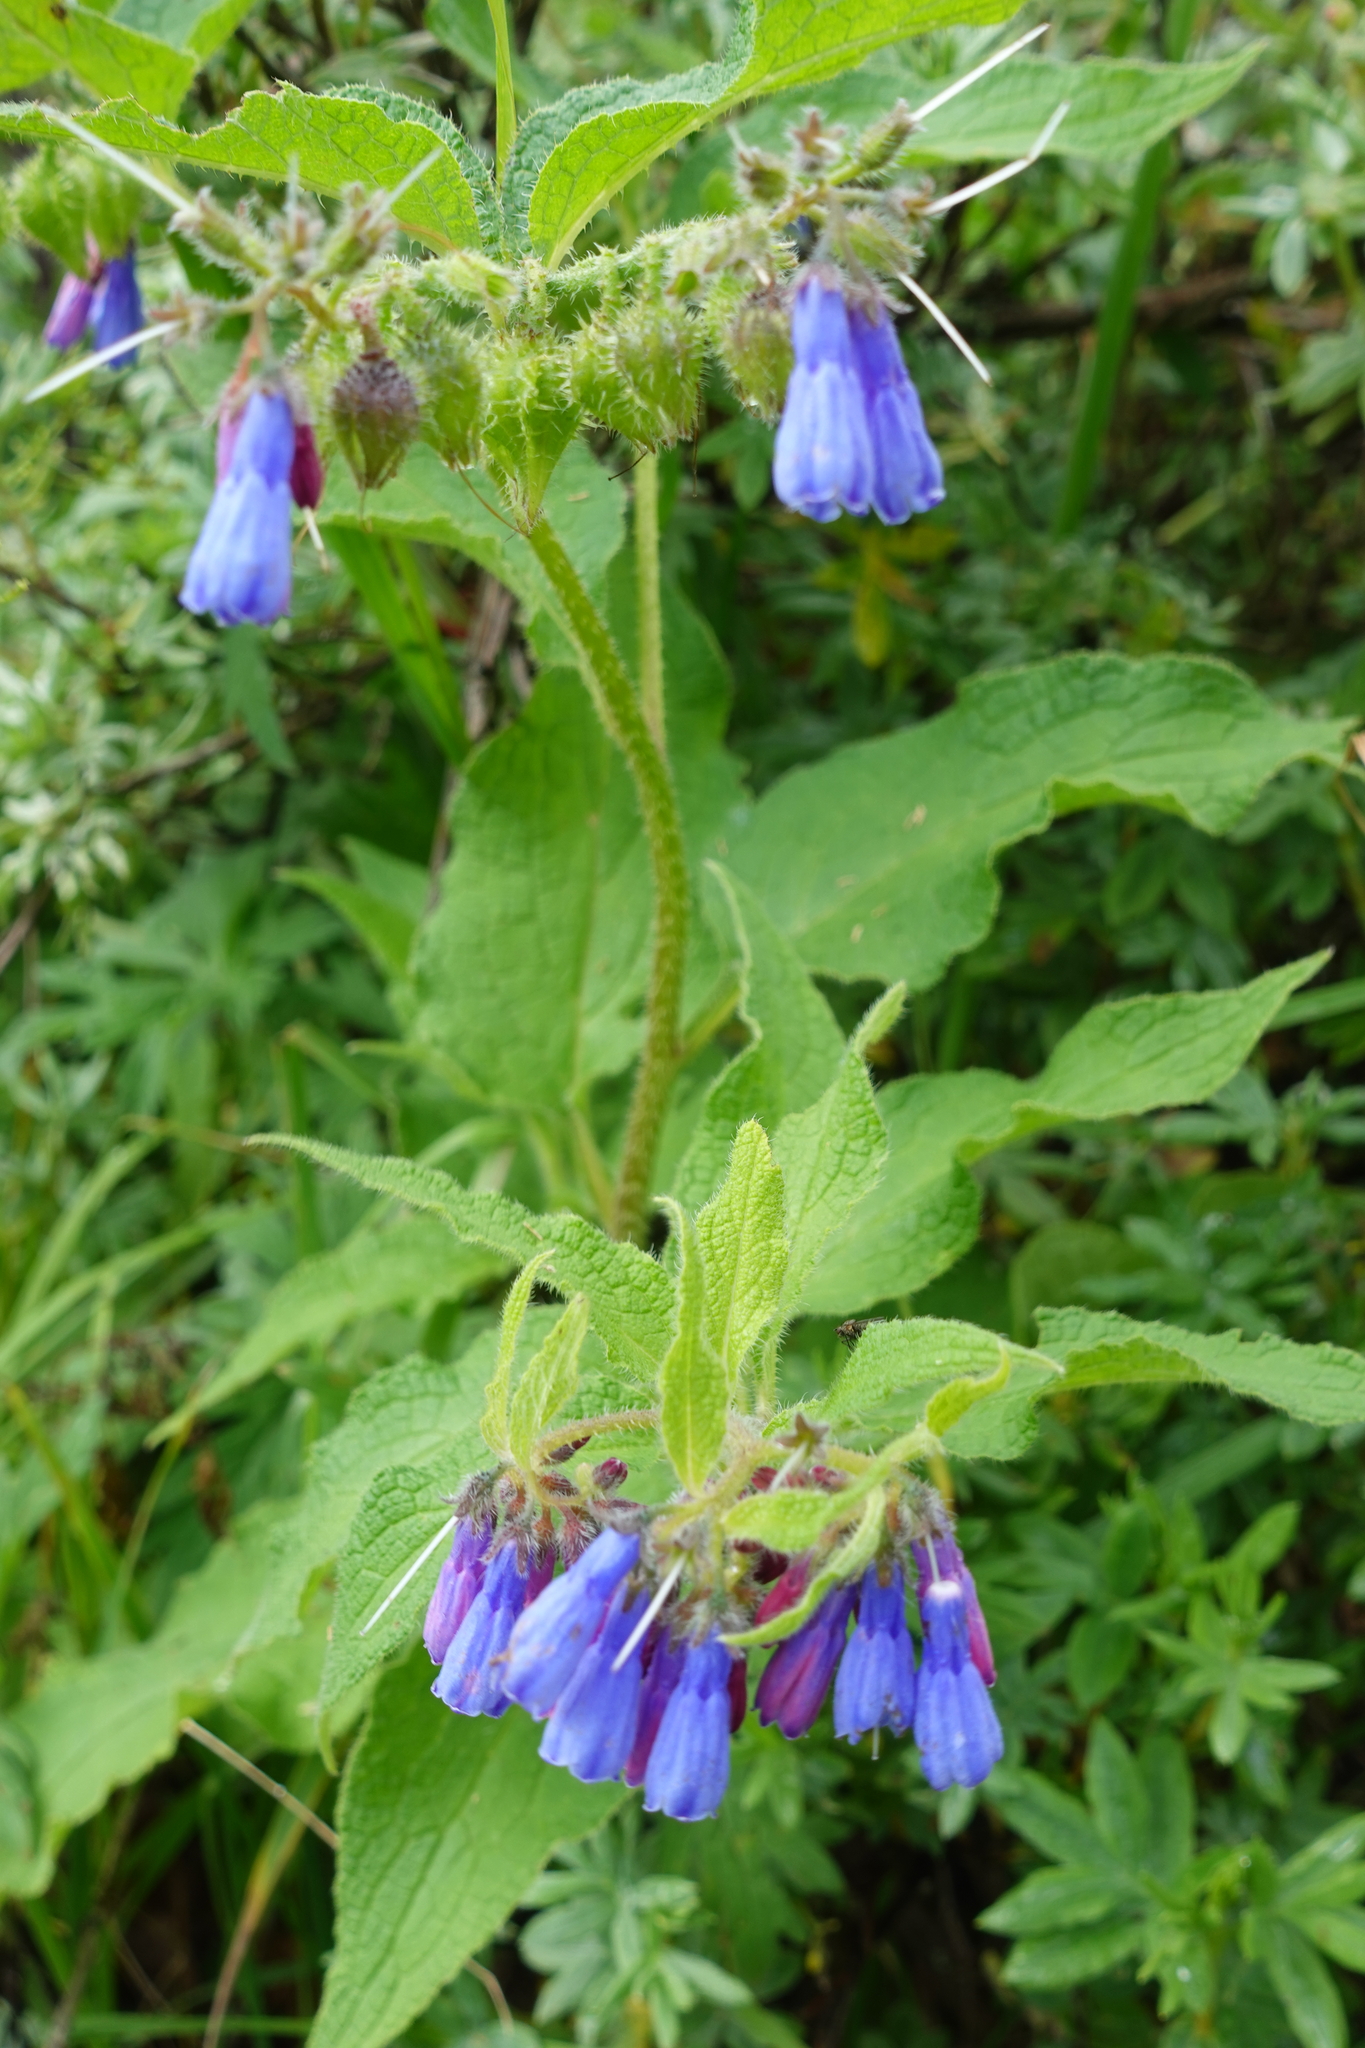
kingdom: Plantae
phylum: Tracheophyta
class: Magnoliopsida
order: Boraginales
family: Boraginaceae
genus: Symphytum
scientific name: Symphytum asperum
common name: Prickly comfrey
